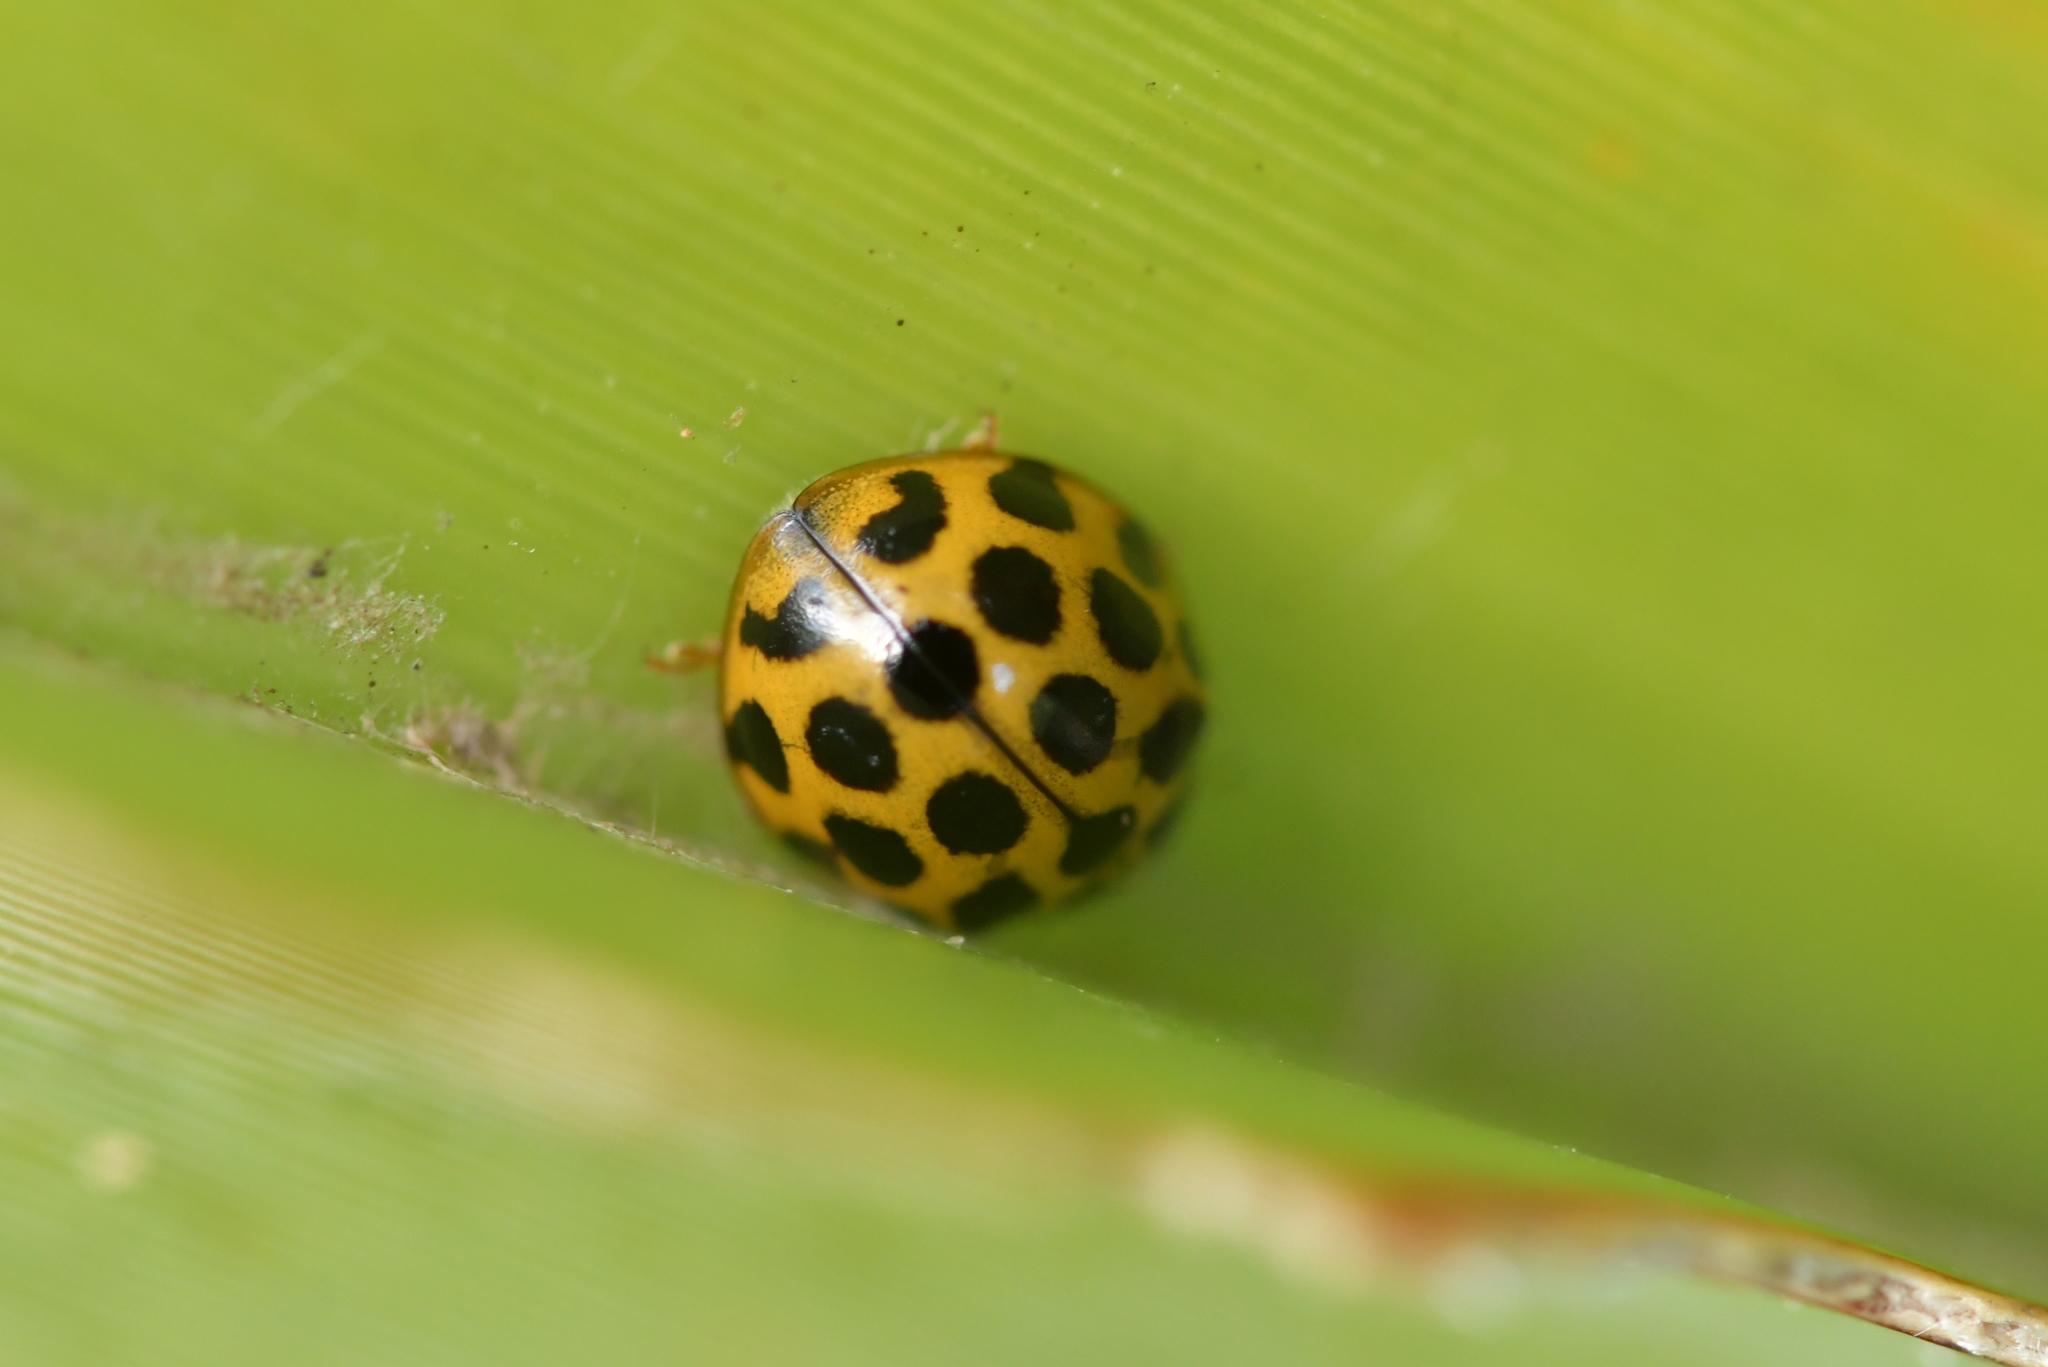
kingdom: Animalia
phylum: Arthropoda
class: Insecta
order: Coleoptera
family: Coccinellidae
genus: Harmonia
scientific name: Harmonia conformis
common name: Common spotted ladybird beetle
